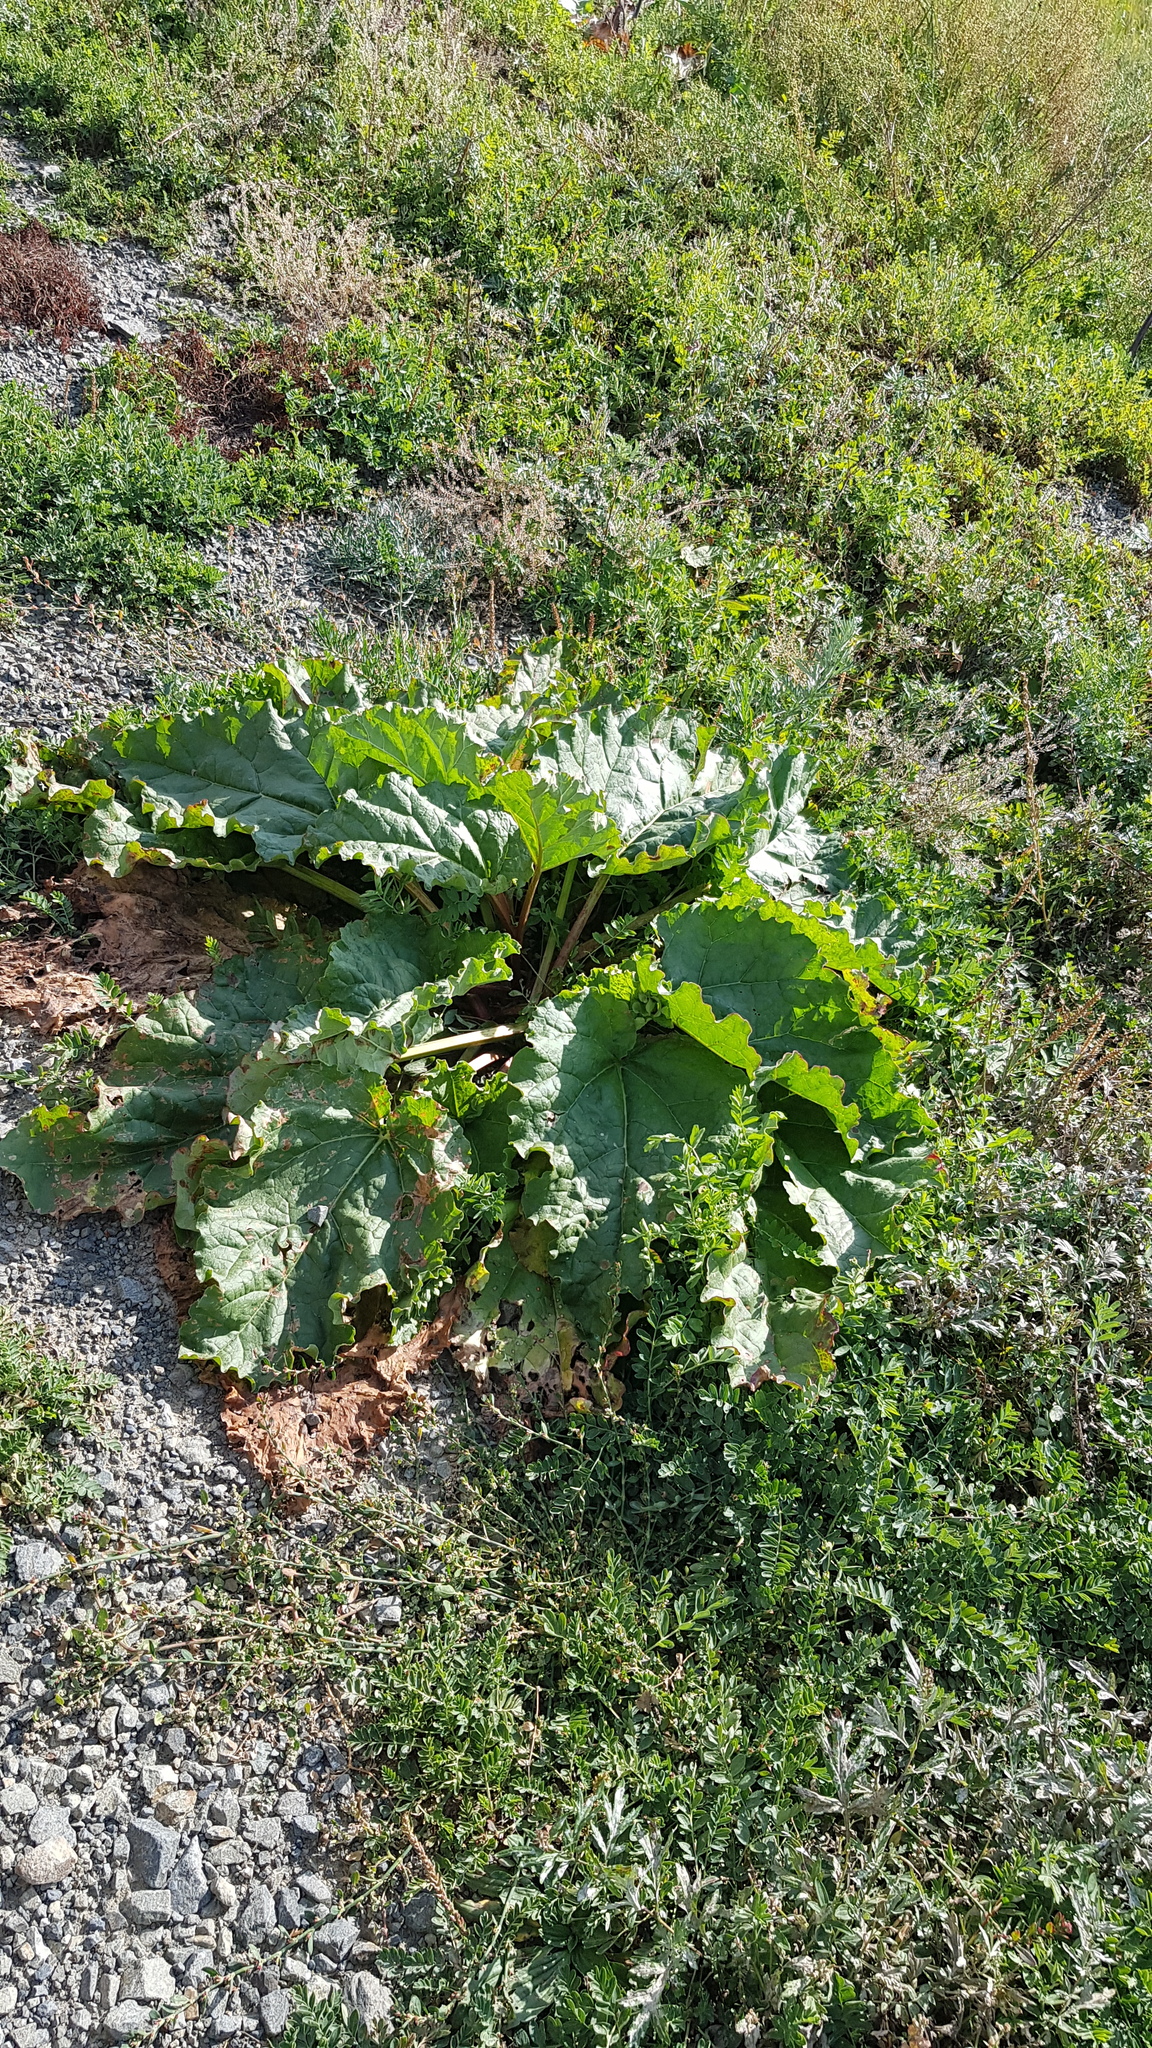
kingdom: Plantae
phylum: Tracheophyta
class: Magnoliopsida
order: Caryophyllales
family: Polygonaceae
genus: Rheum
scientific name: Rheum rhabarbarum
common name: Garden rhubarb
